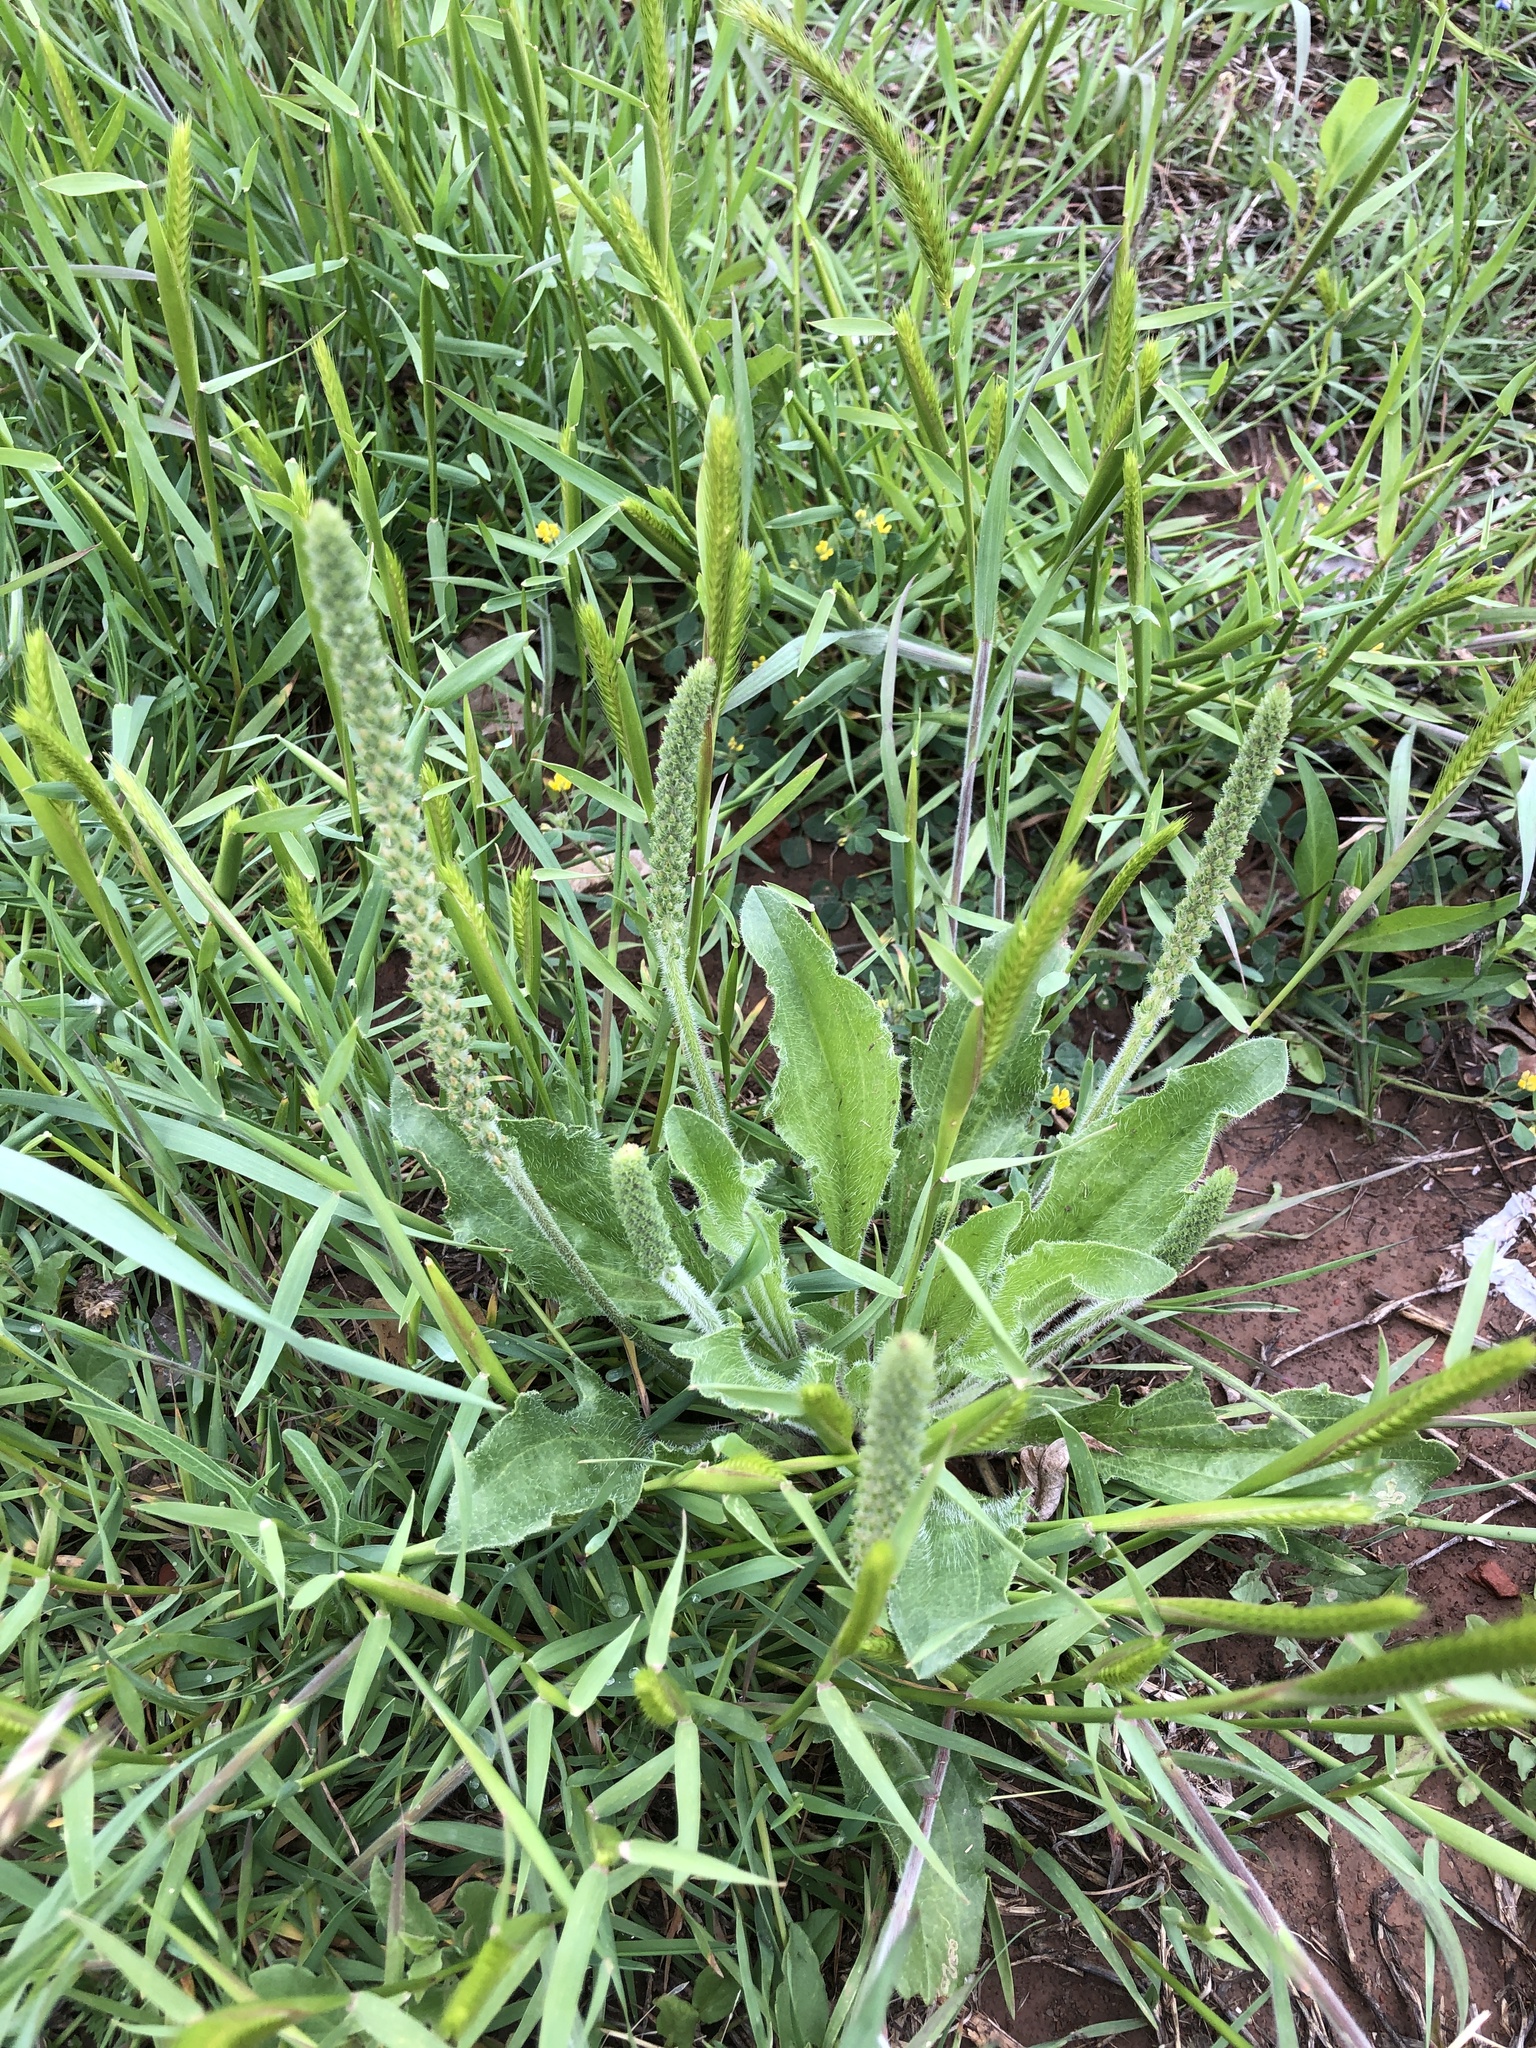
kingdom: Plantae
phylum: Tracheophyta
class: Magnoliopsida
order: Lamiales
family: Plantaginaceae
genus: Plantago
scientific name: Plantago rhodosperma
